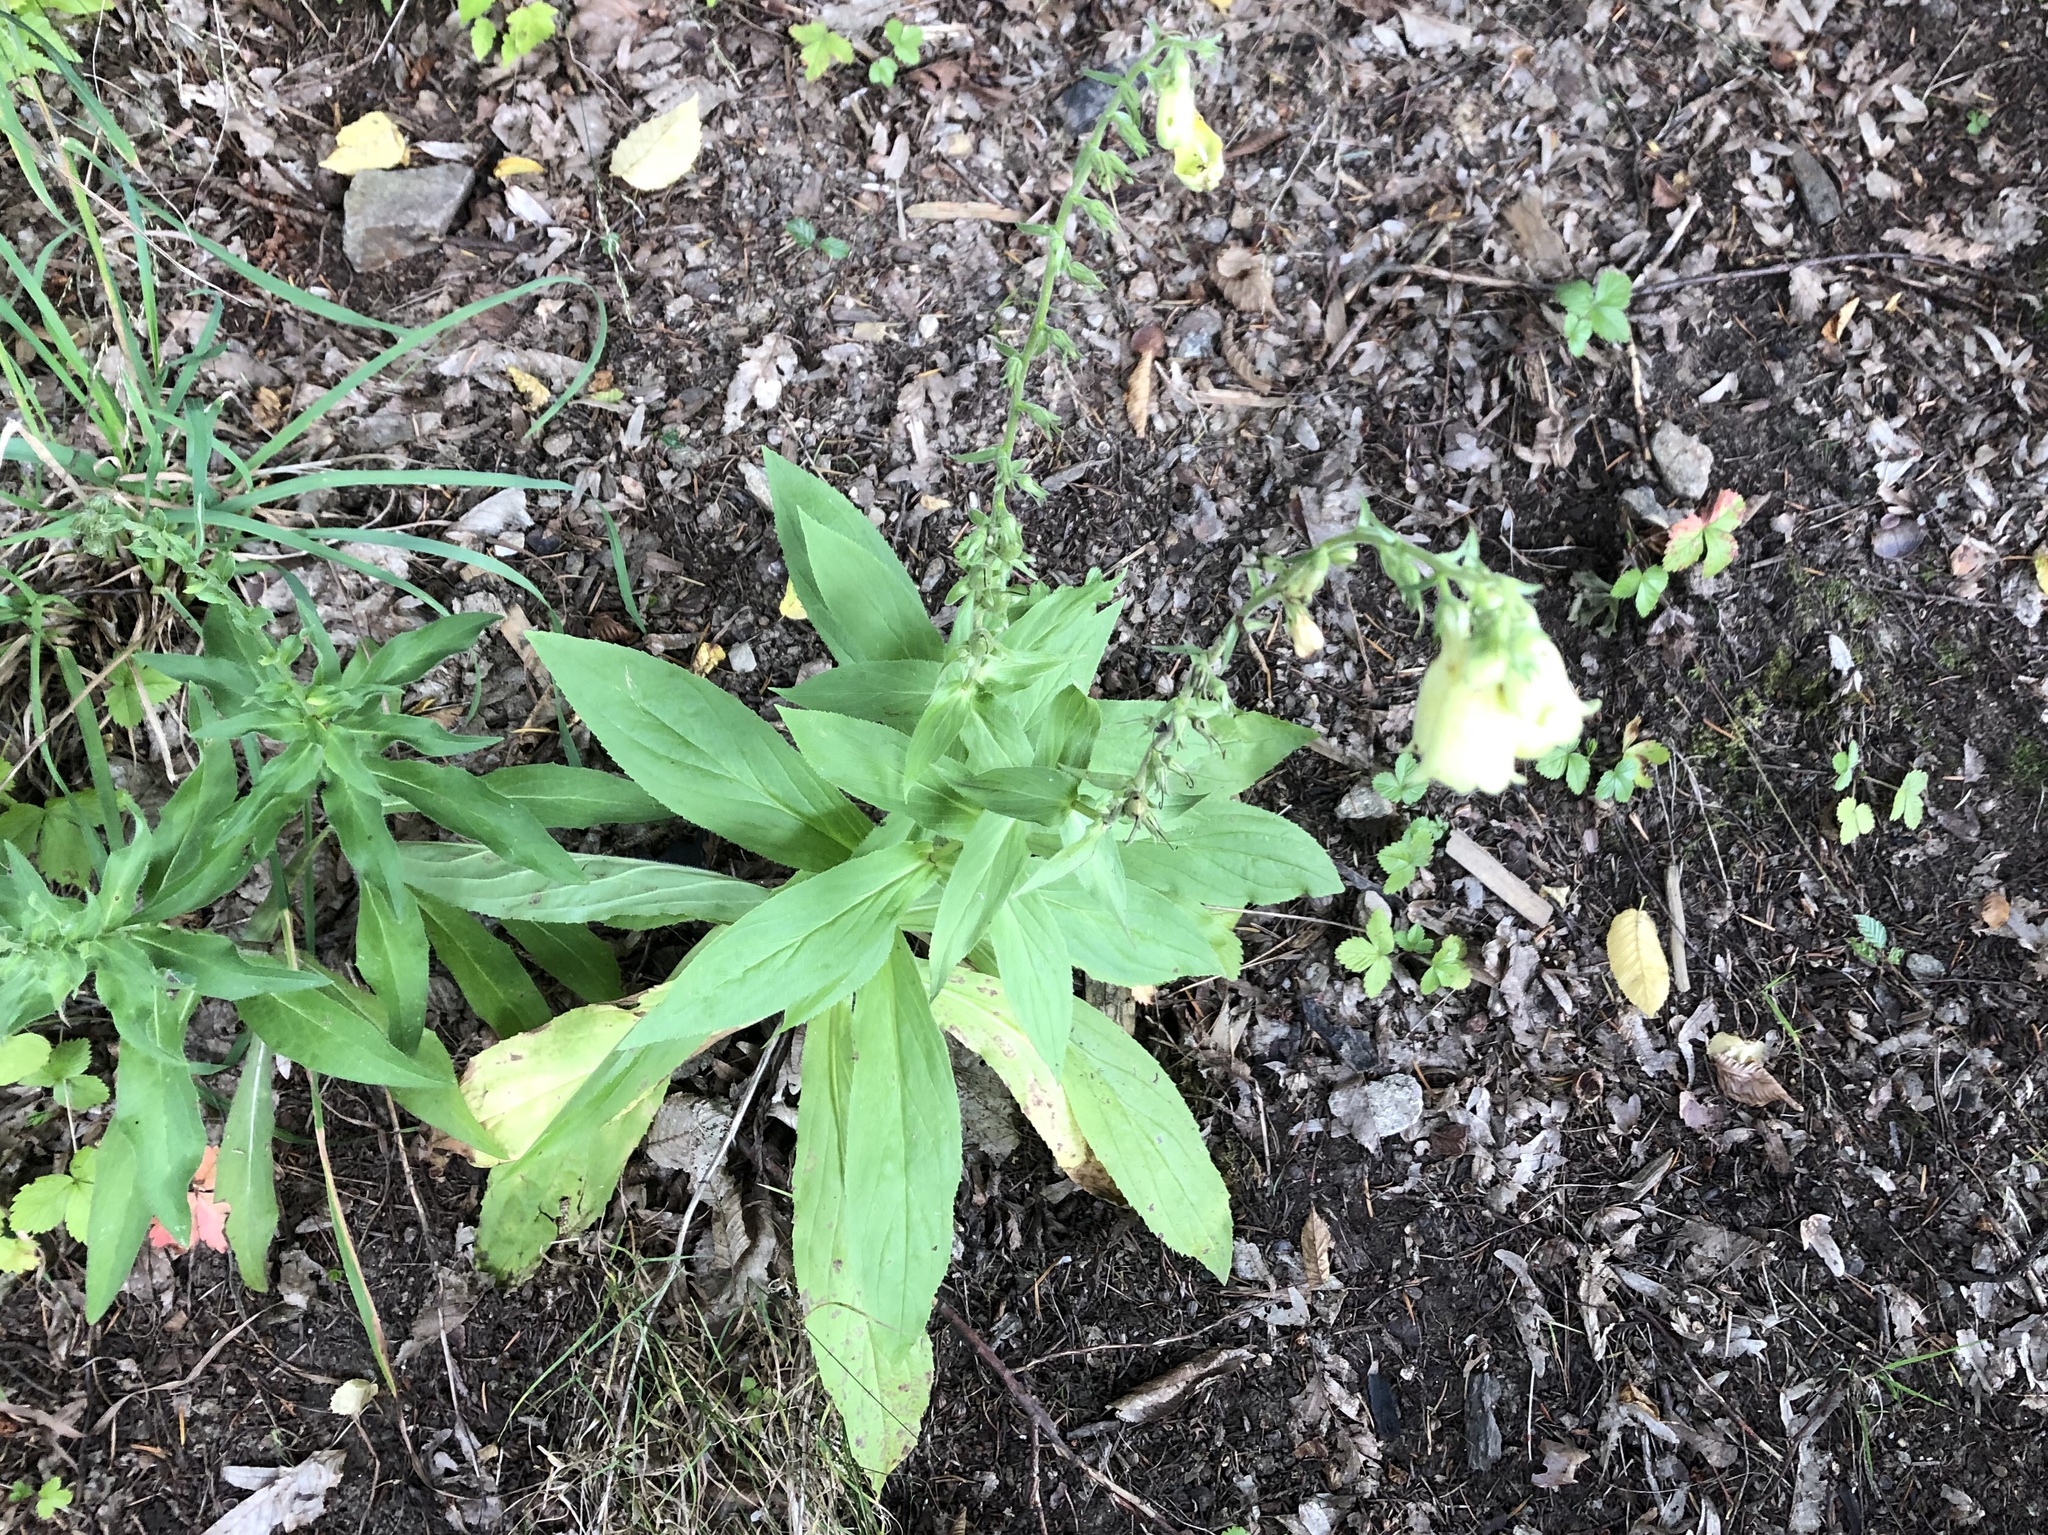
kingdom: Plantae
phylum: Tracheophyta
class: Magnoliopsida
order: Lamiales
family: Plantaginaceae
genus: Digitalis
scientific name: Digitalis grandiflora
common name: Yellow foxglove
